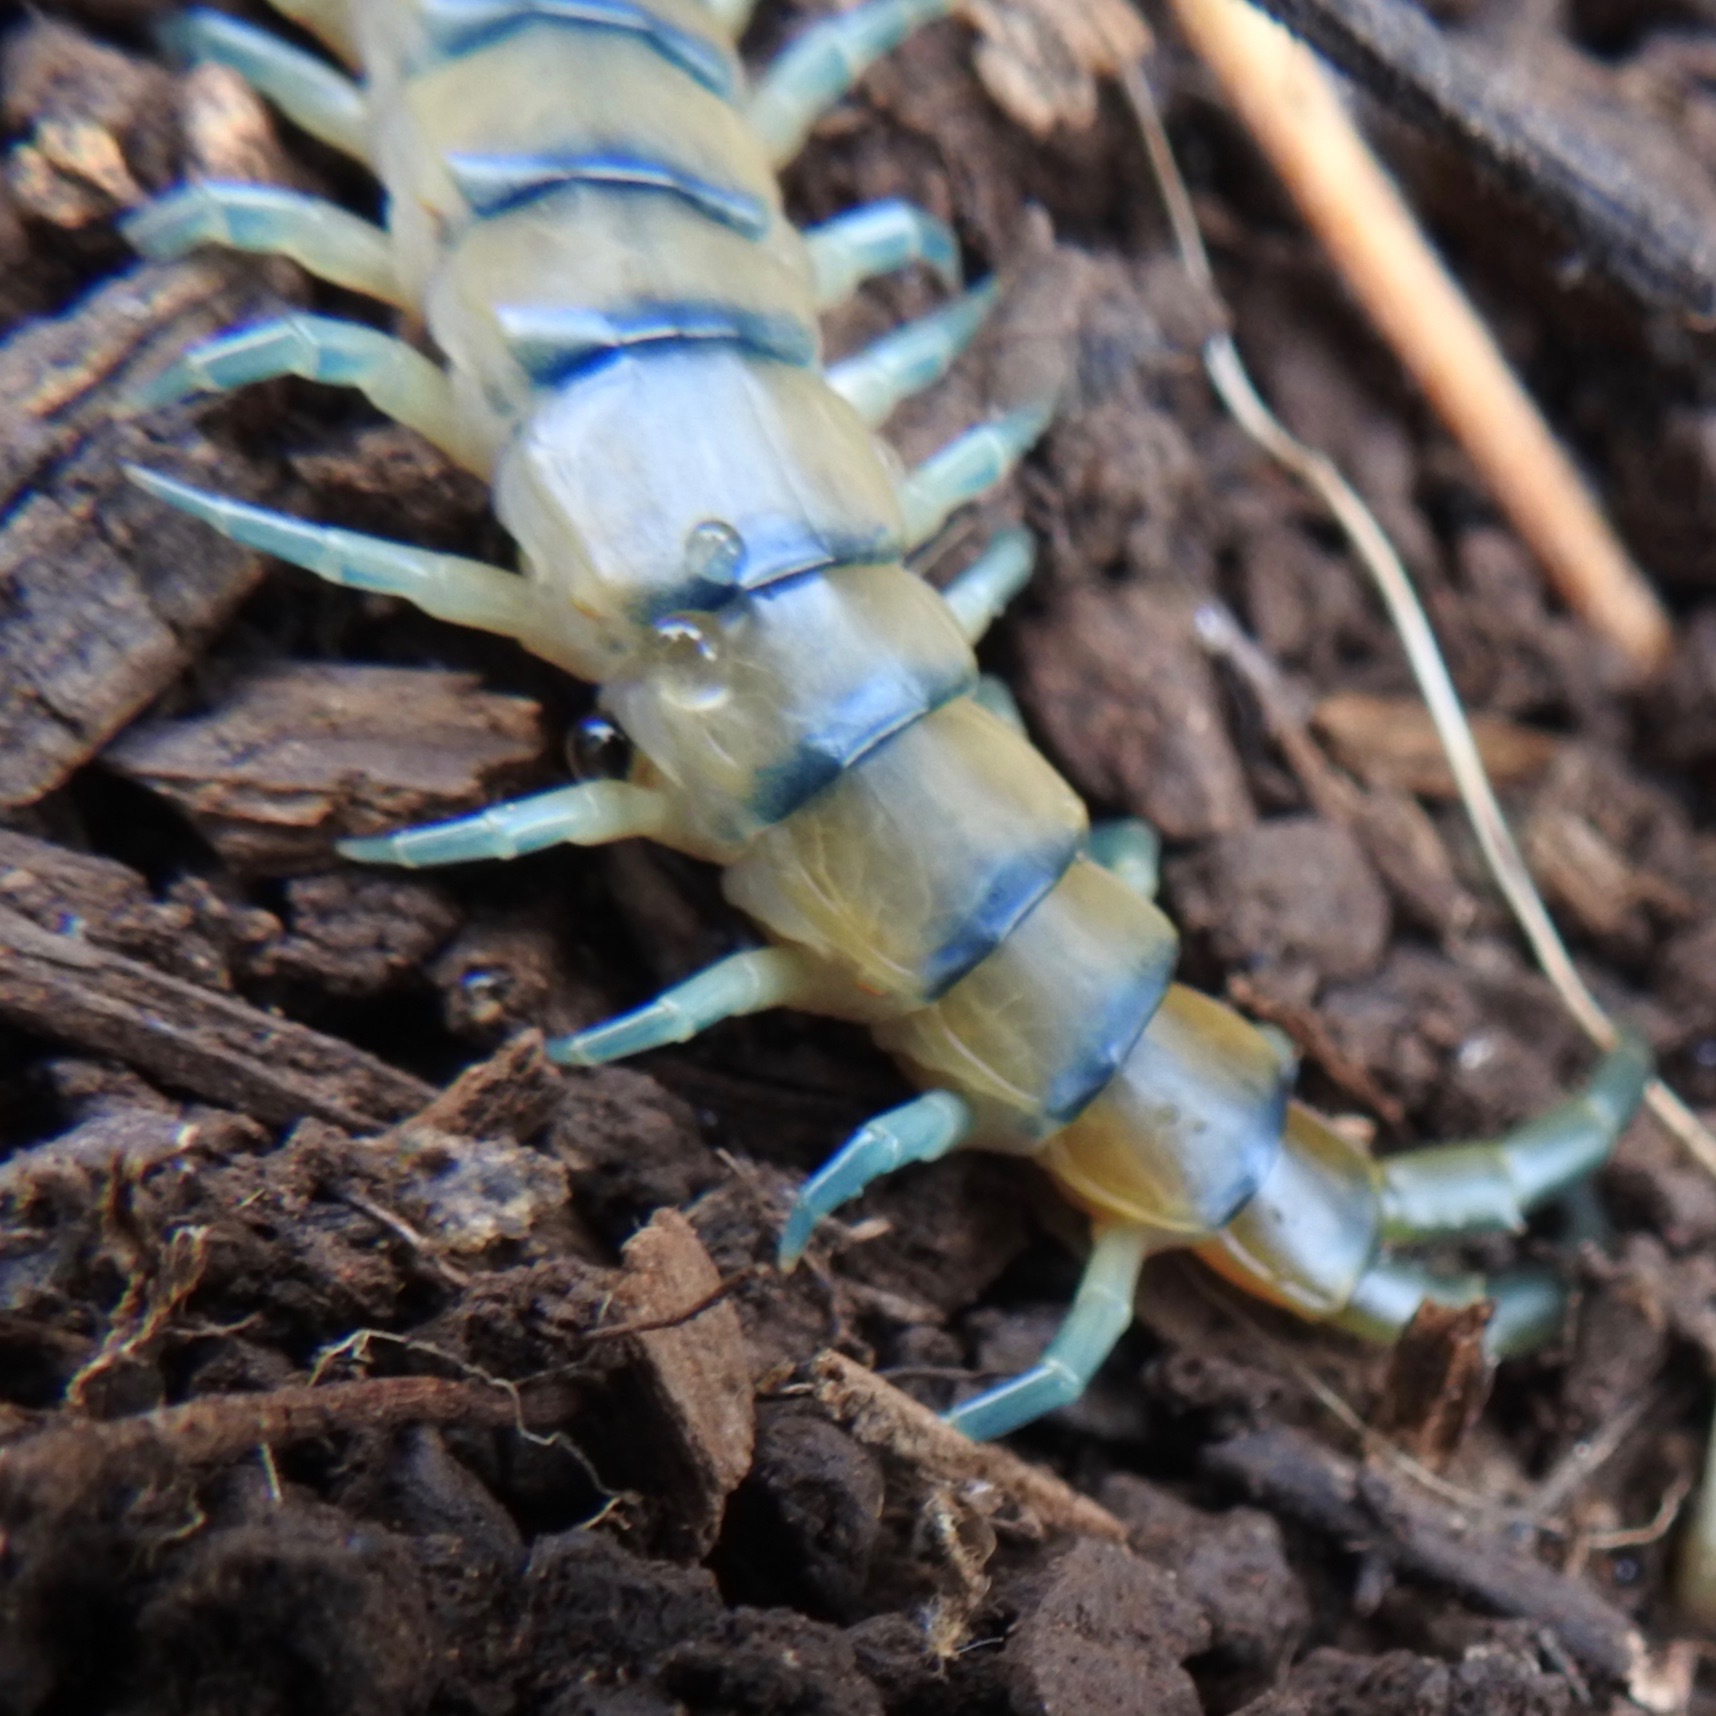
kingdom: Animalia
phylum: Arthropoda
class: Chilopoda
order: Scolopendromorpha
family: Scolopendridae
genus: Scolopendra
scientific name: Scolopendra polymorpha
